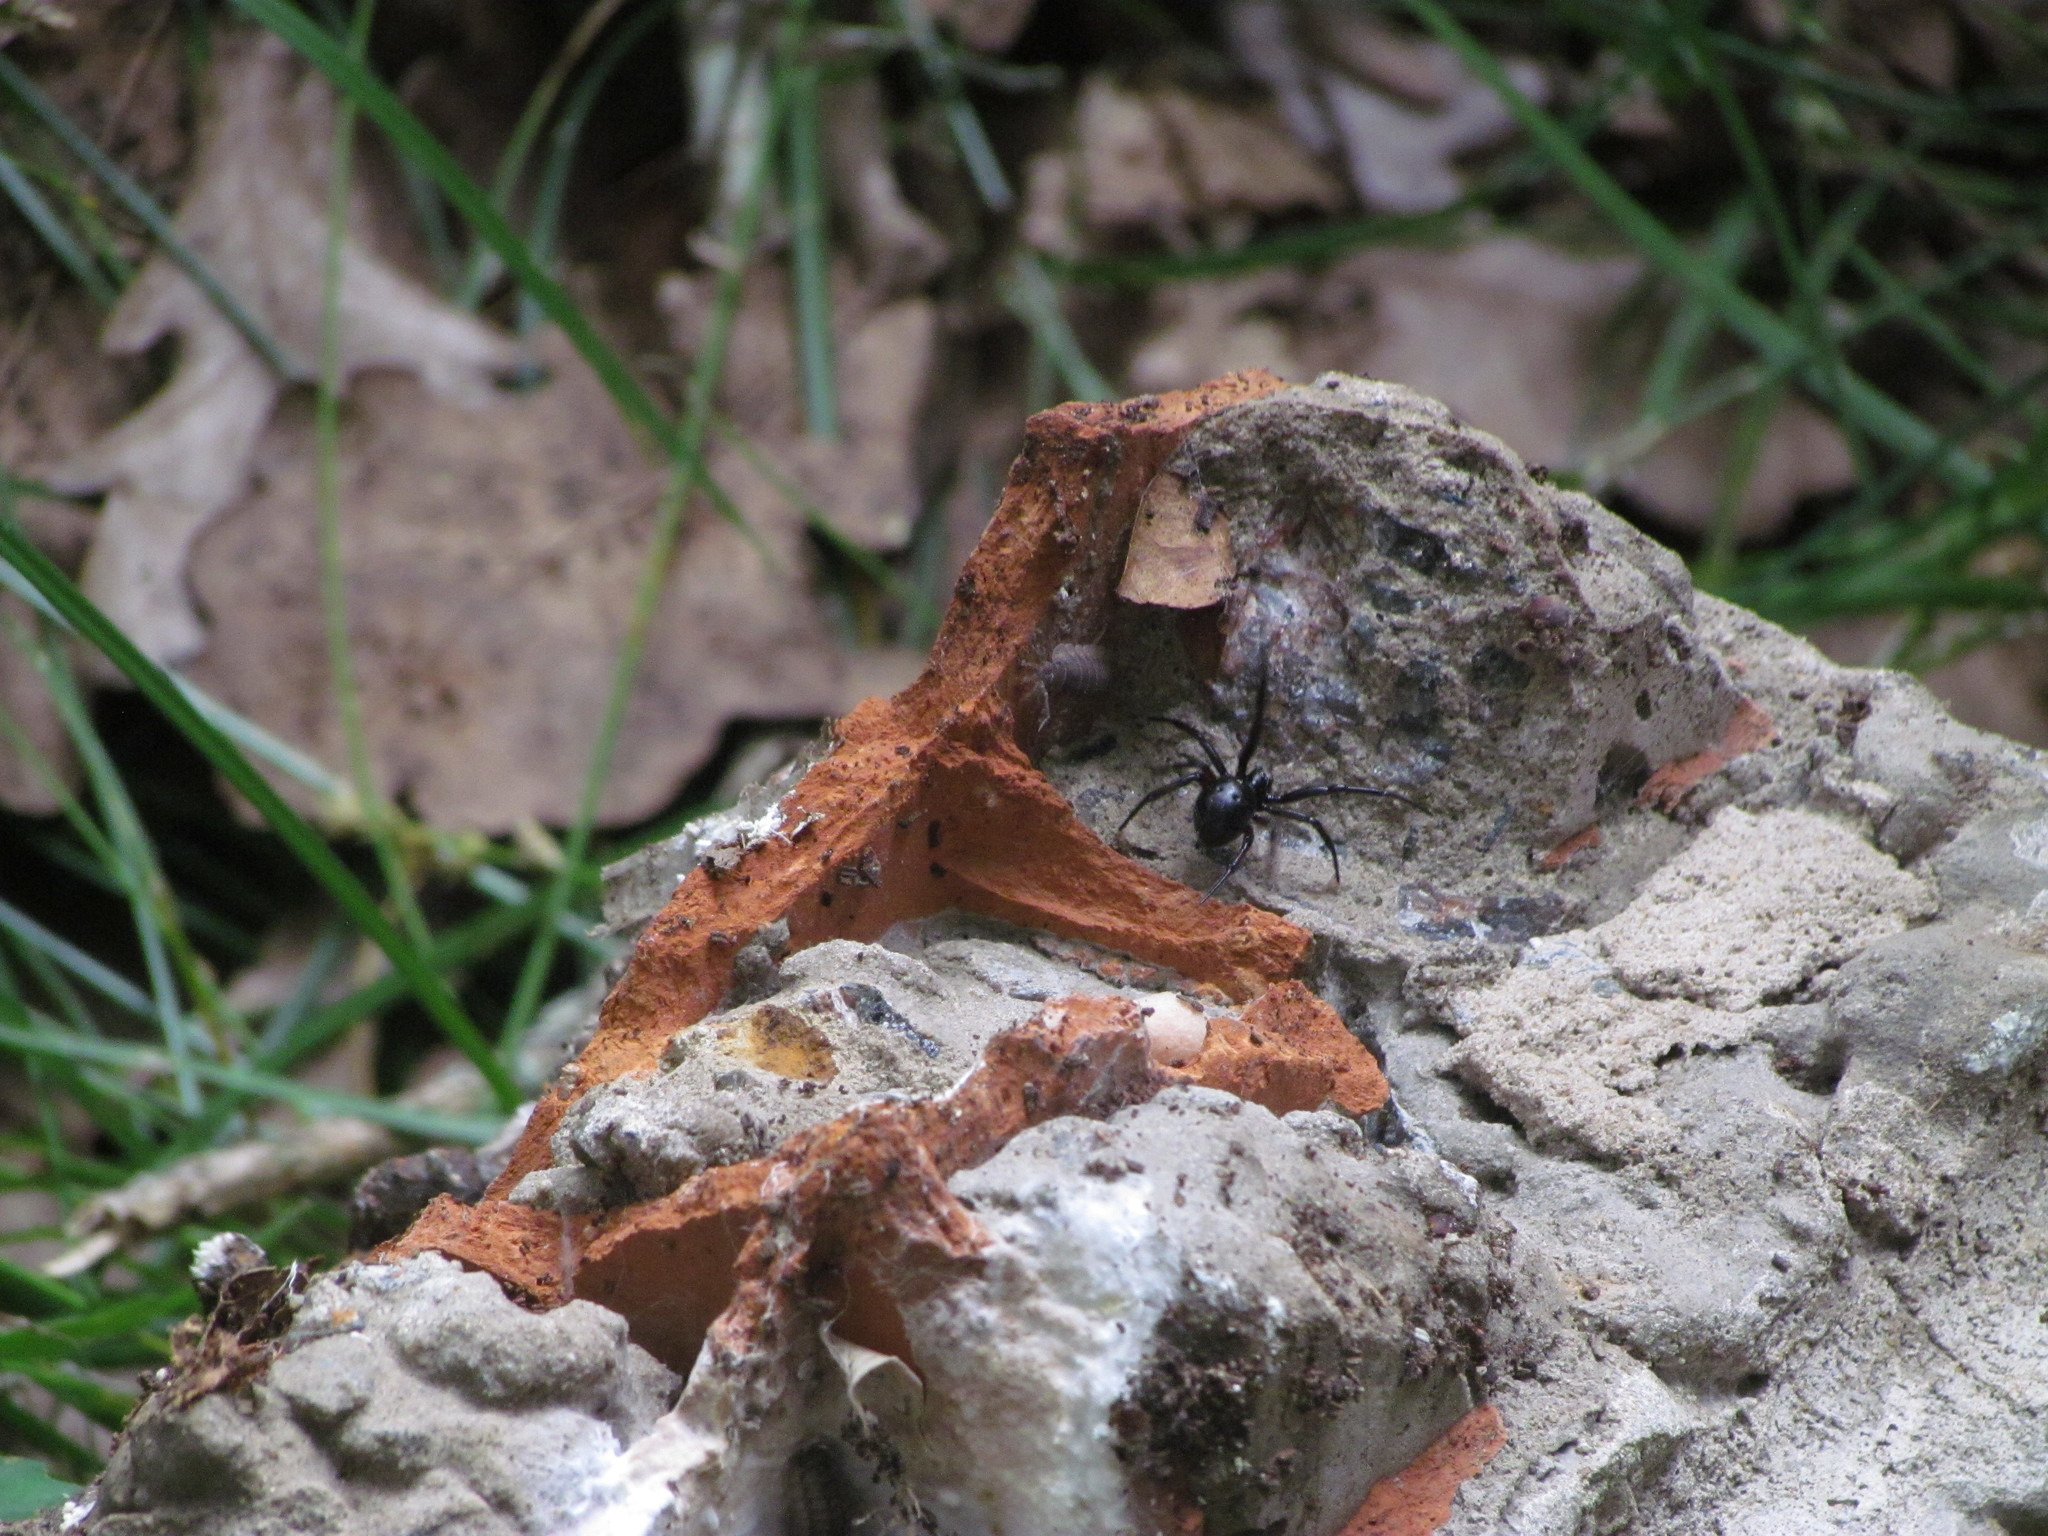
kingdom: Animalia
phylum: Arthropoda
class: Arachnida
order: Araneae
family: Theridiidae
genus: Steatoda
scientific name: Steatoda retorta
